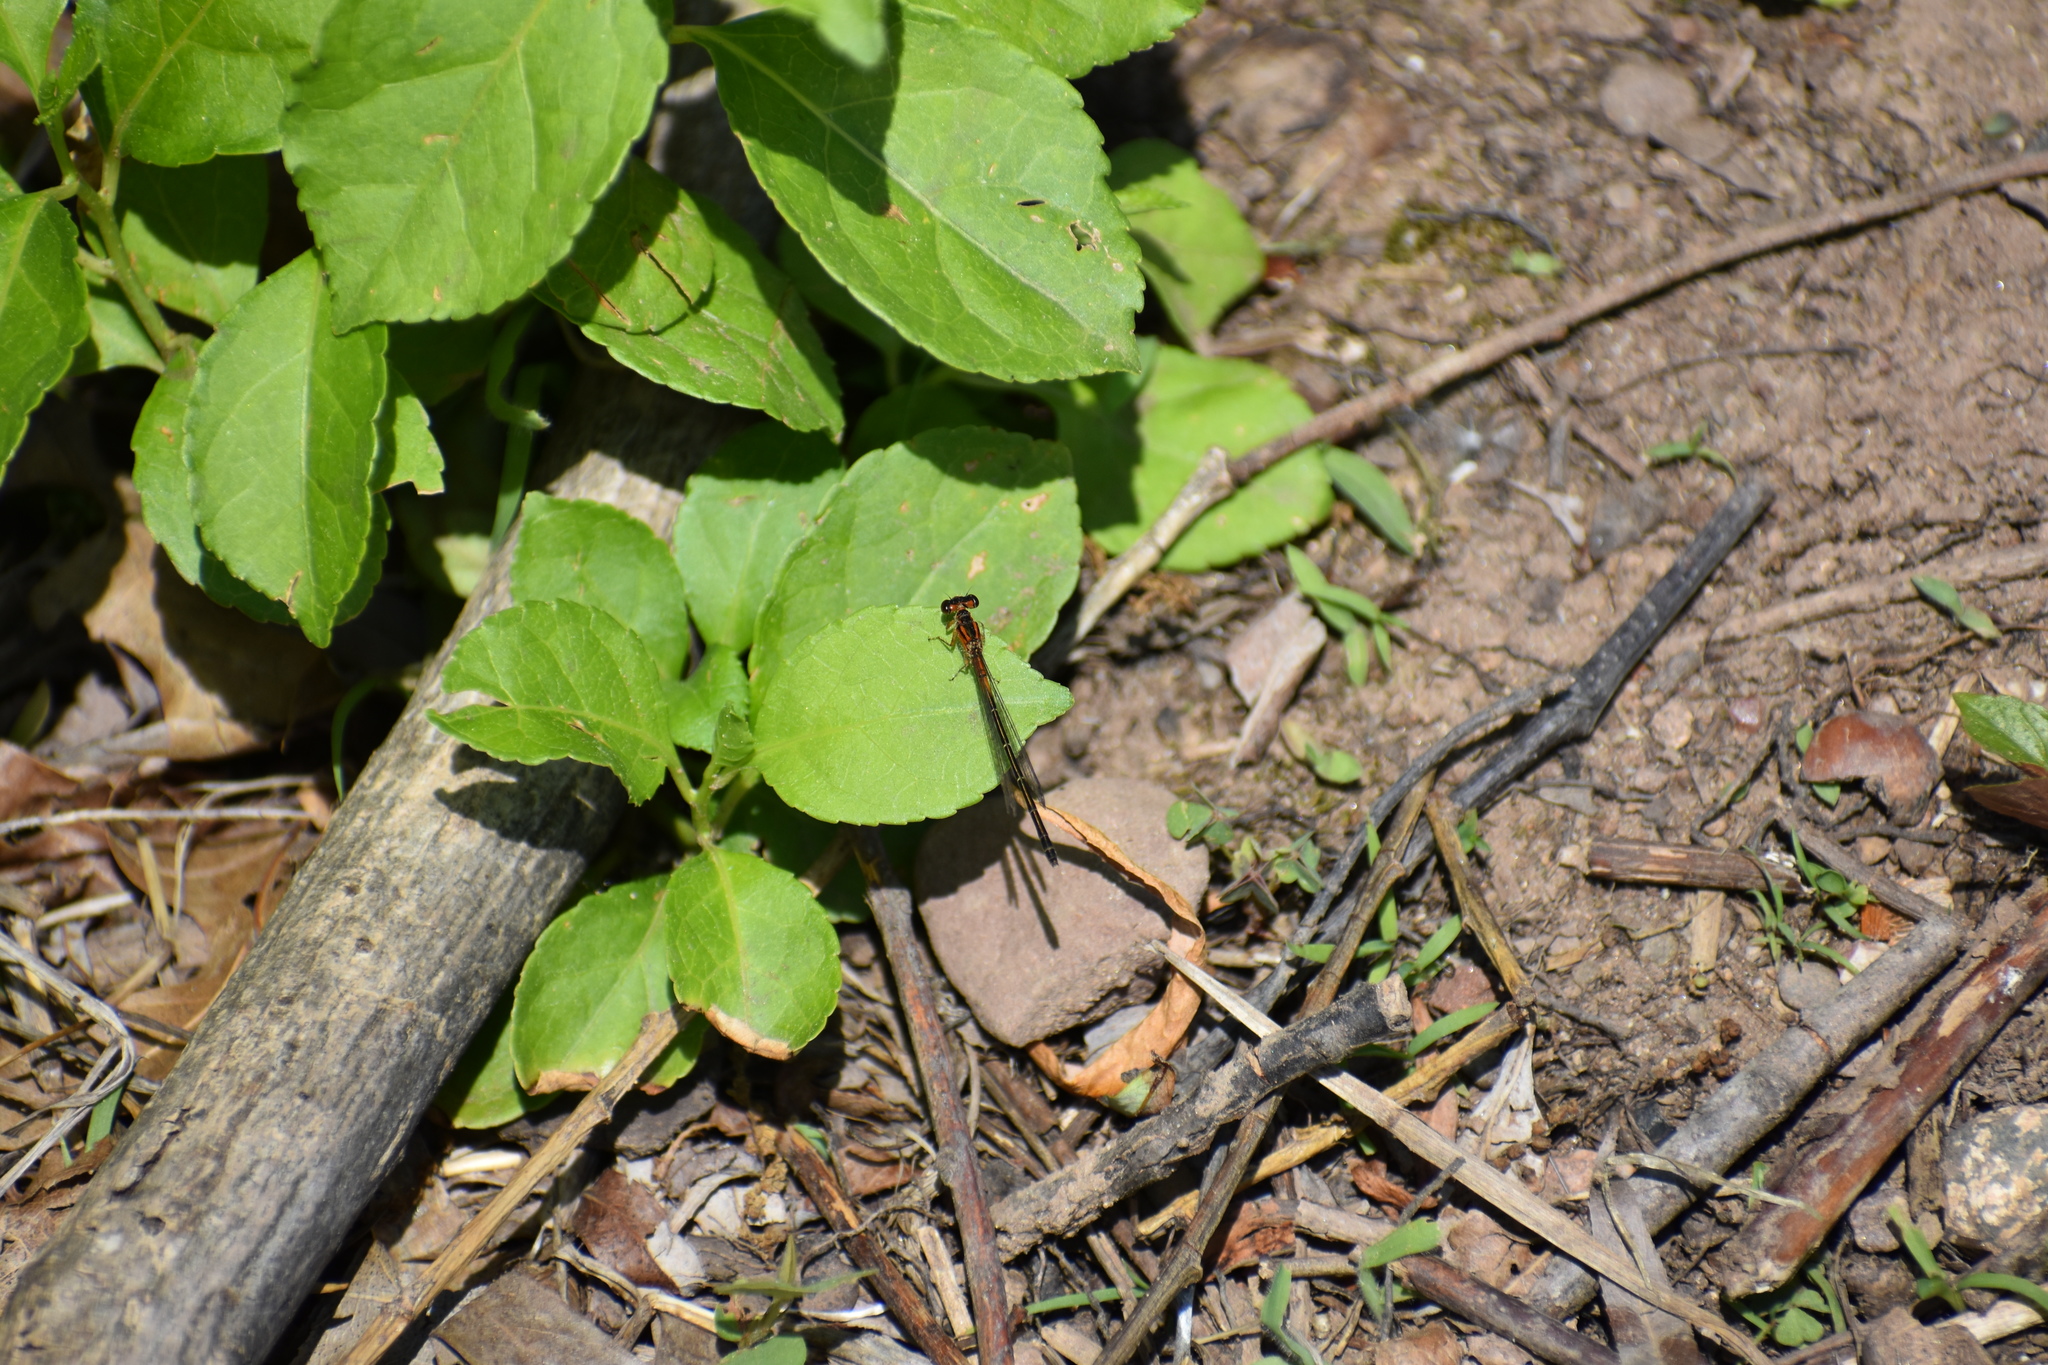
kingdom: Animalia
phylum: Arthropoda
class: Insecta
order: Odonata
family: Coenagrionidae
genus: Ischnura
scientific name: Ischnura verticalis
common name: Eastern forktail
